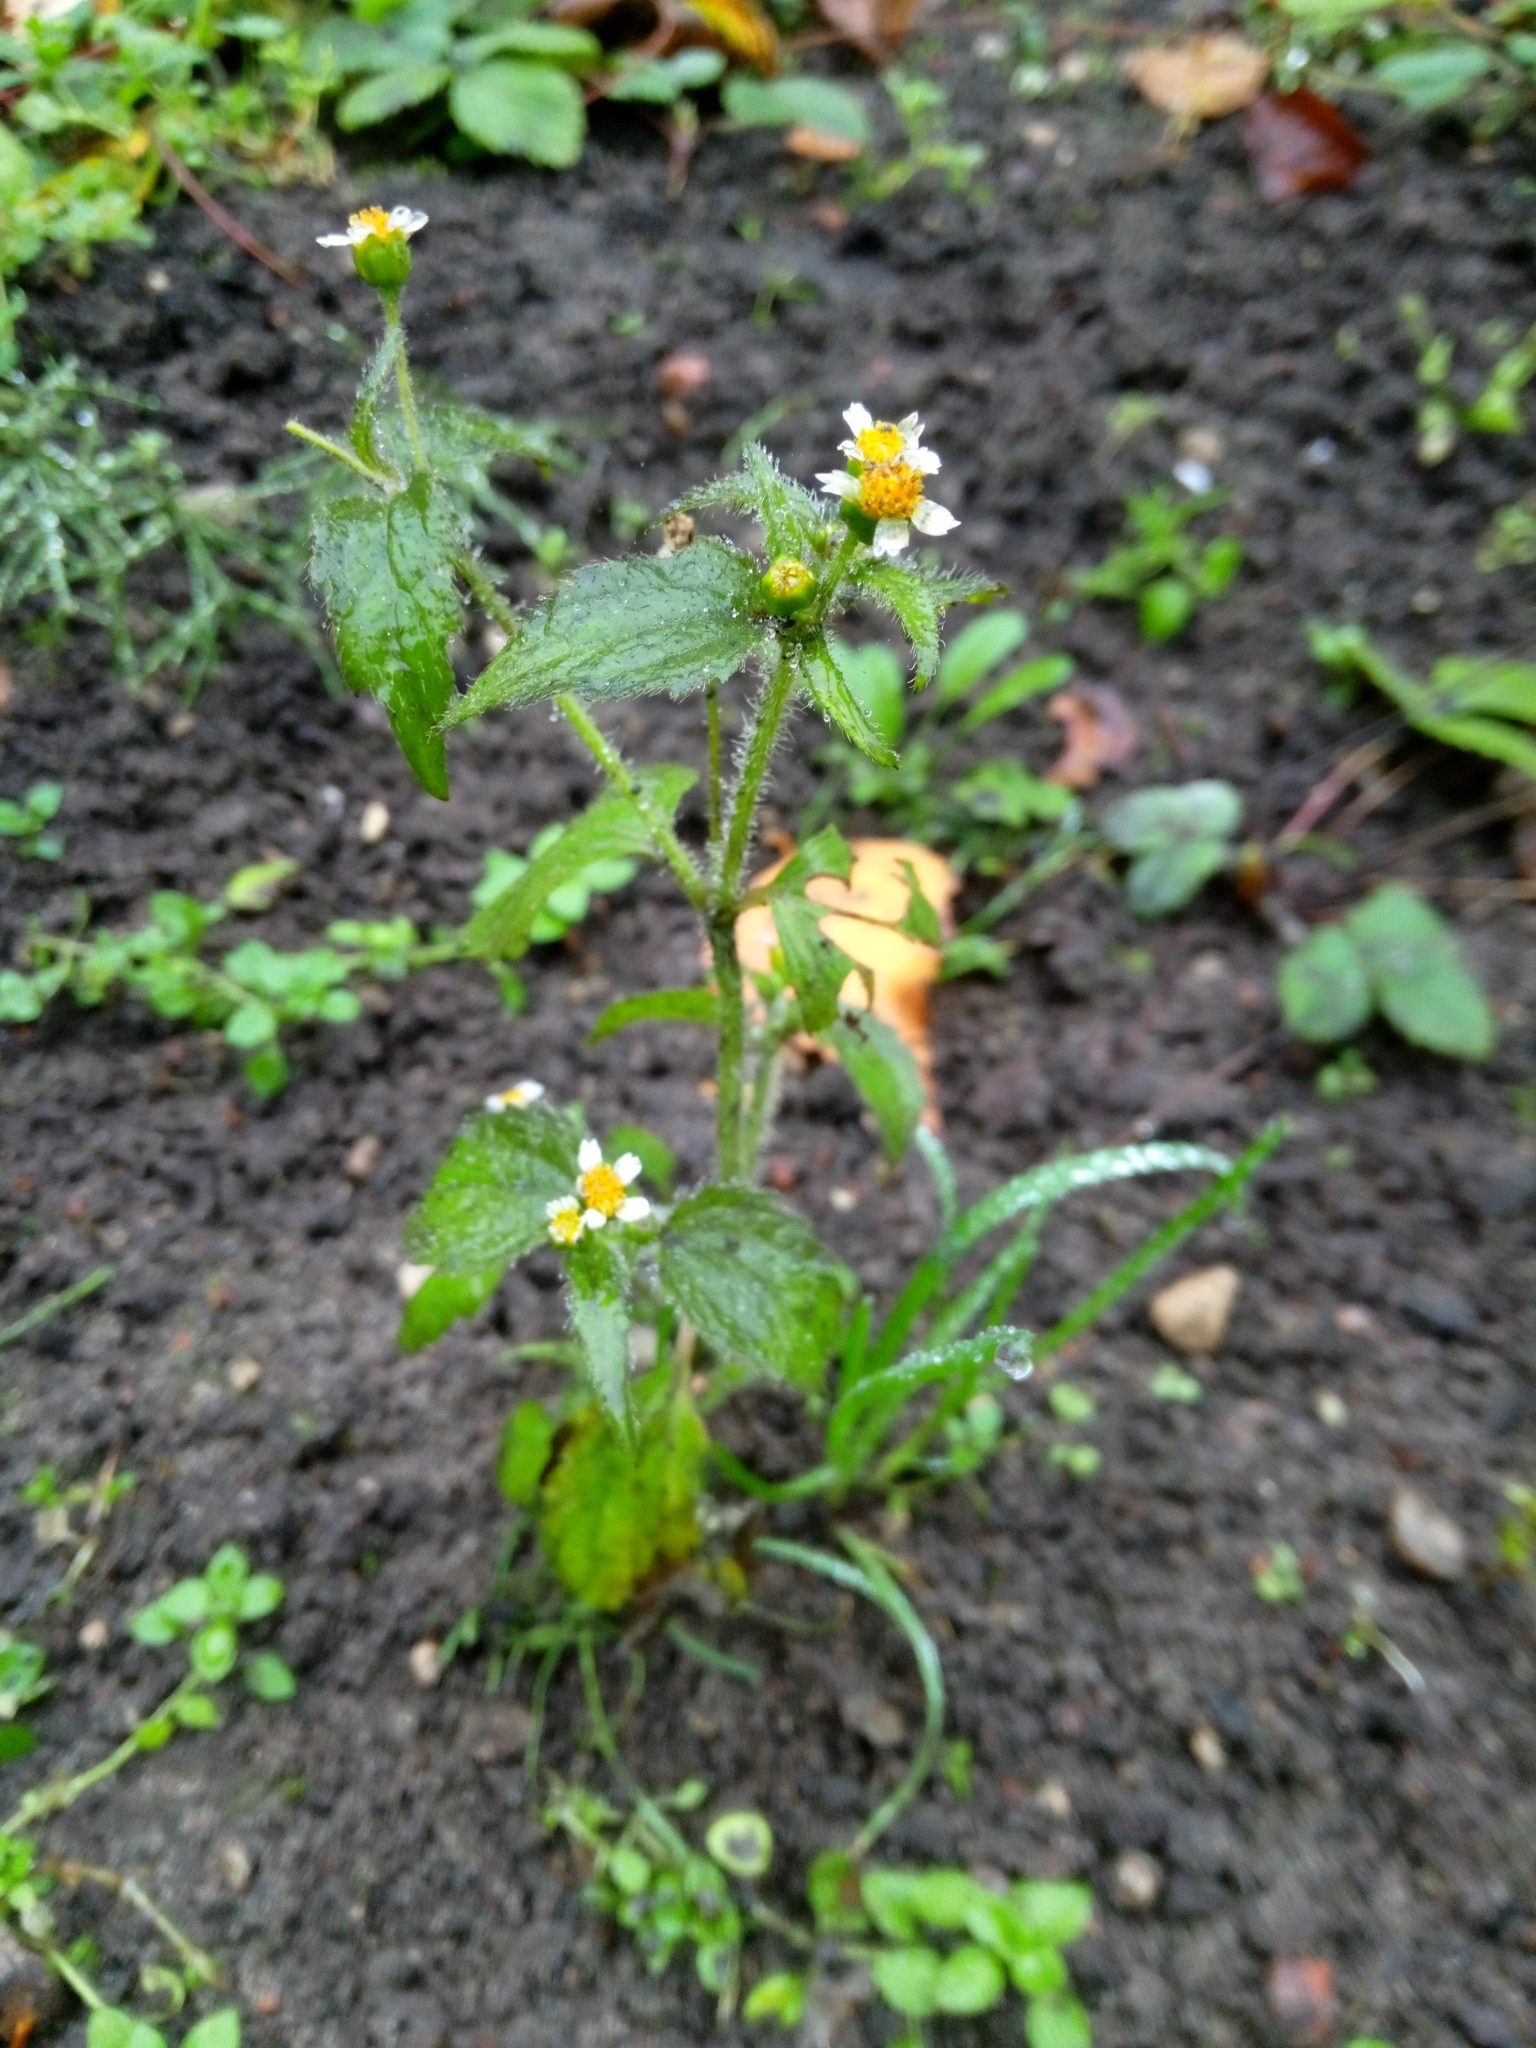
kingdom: Plantae
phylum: Tracheophyta
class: Magnoliopsida
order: Asterales
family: Asteraceae
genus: Galinsoga
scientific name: Galinsoga quadriradiata
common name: Shaggy soldier
